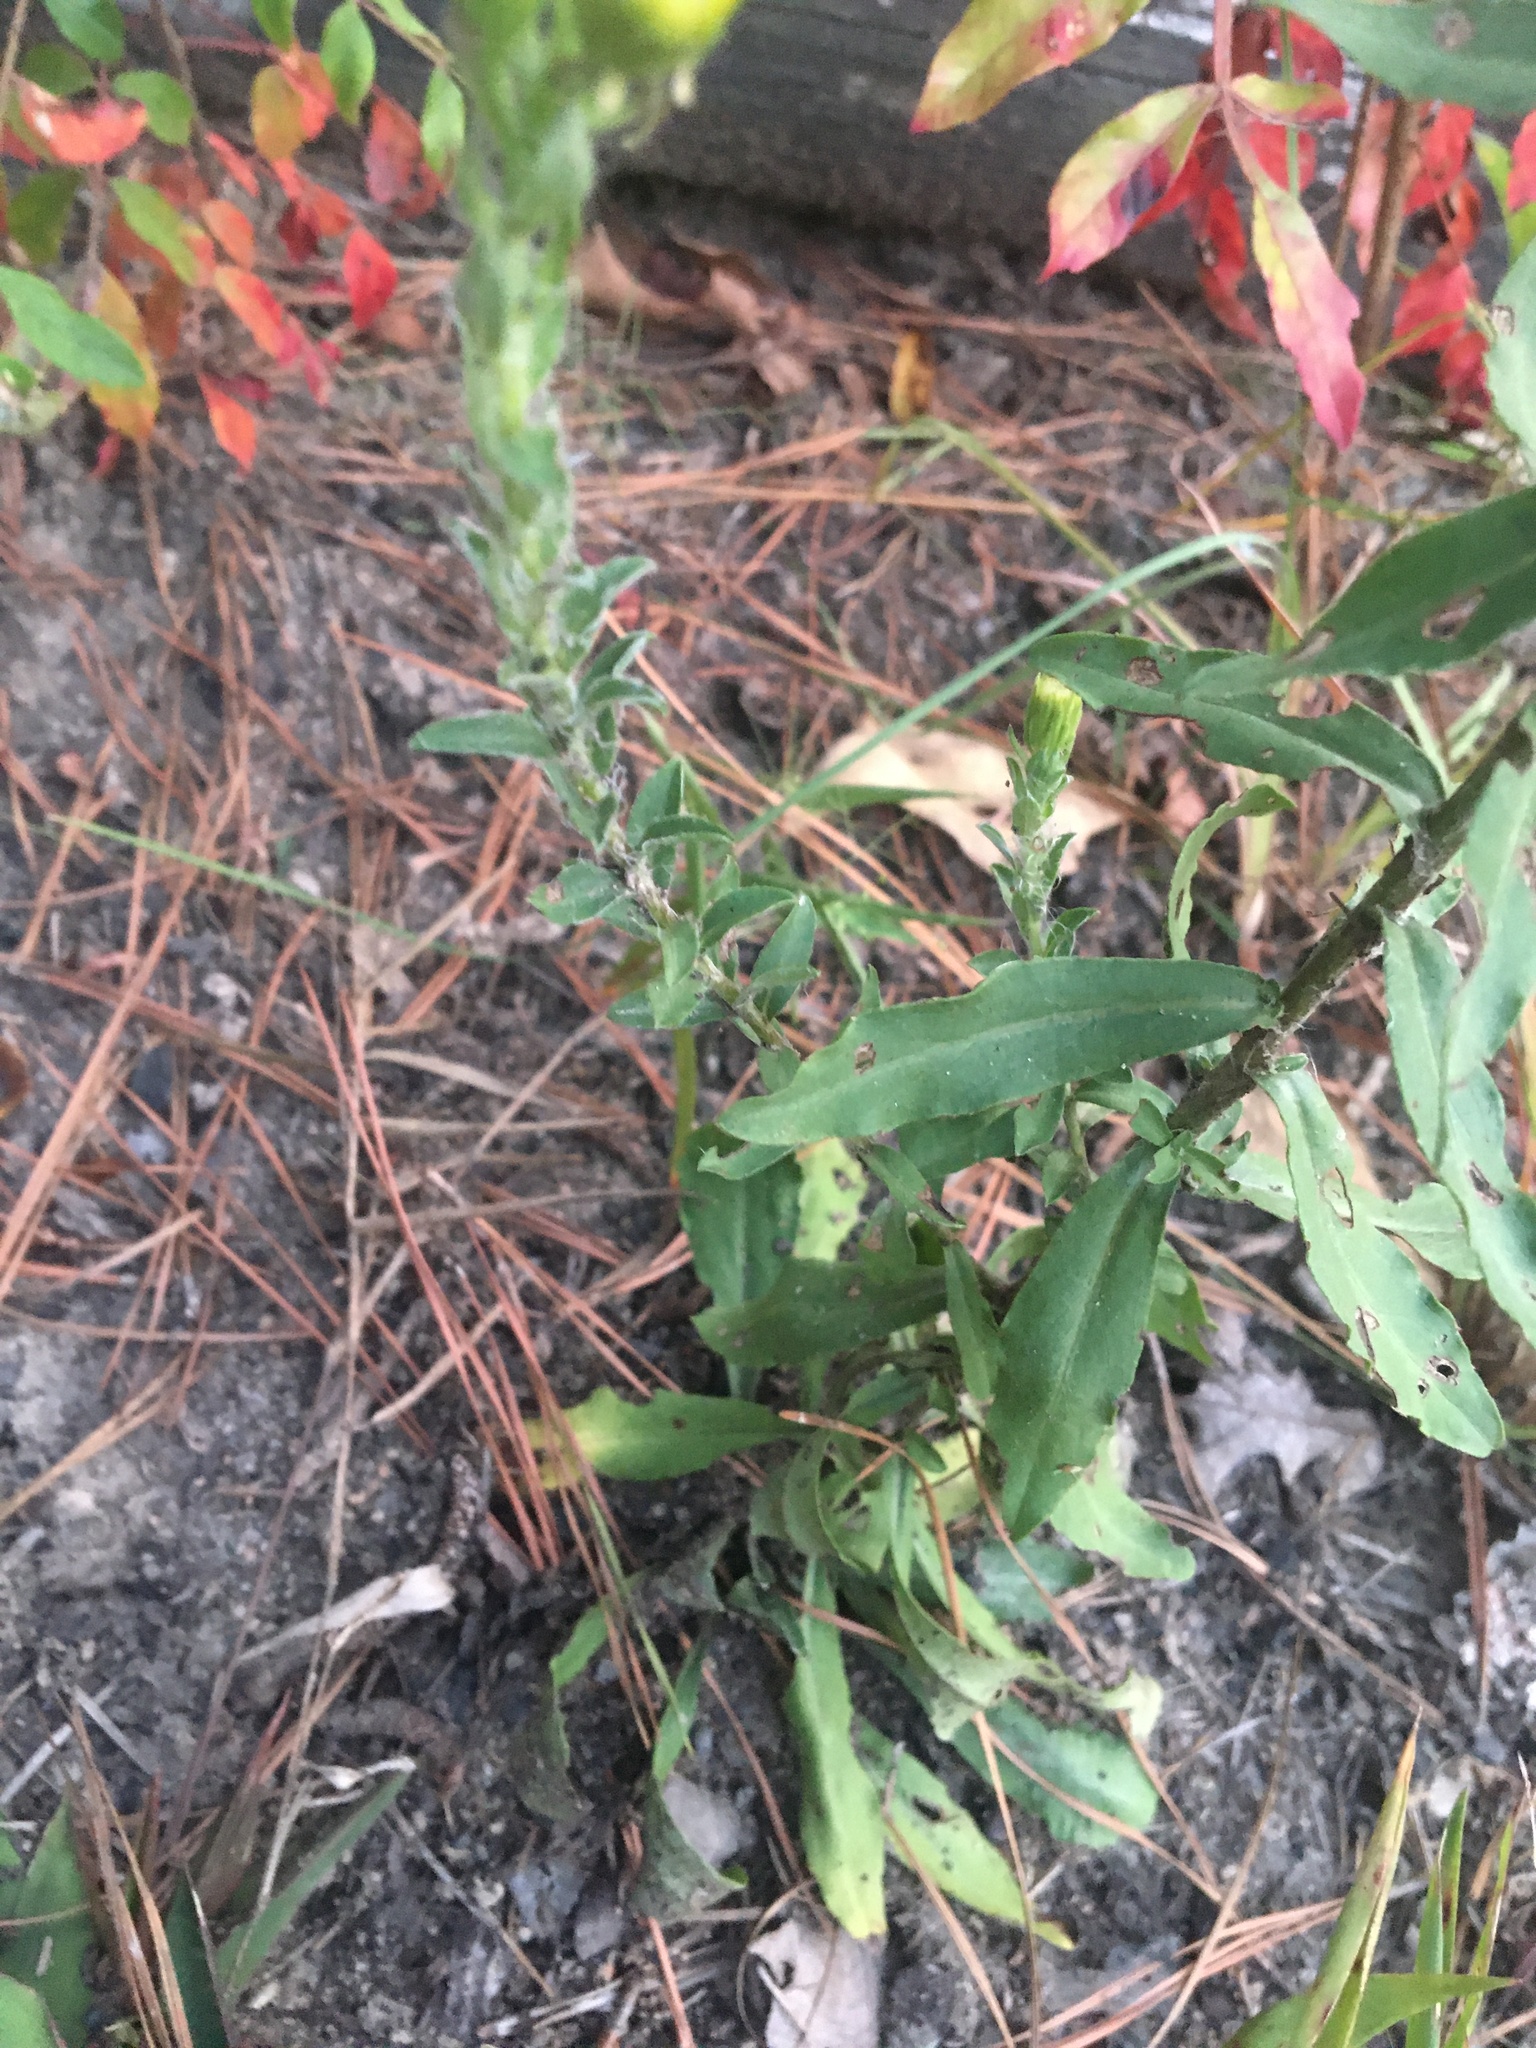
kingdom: Plantae
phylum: Tracheophyta
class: Magnoliopsida
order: Asterales
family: Asteraceae
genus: Chrysopsis
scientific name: Chrysopsis mariana
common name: Maryland golden-aster
